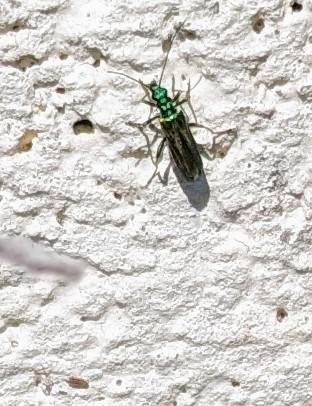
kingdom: Animalia
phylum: Arthropoda
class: Insecta
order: Coleoptera
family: Oedemeridae
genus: Oedemera
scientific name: Oedemera nobilis
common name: Swollen-thighed beetle
